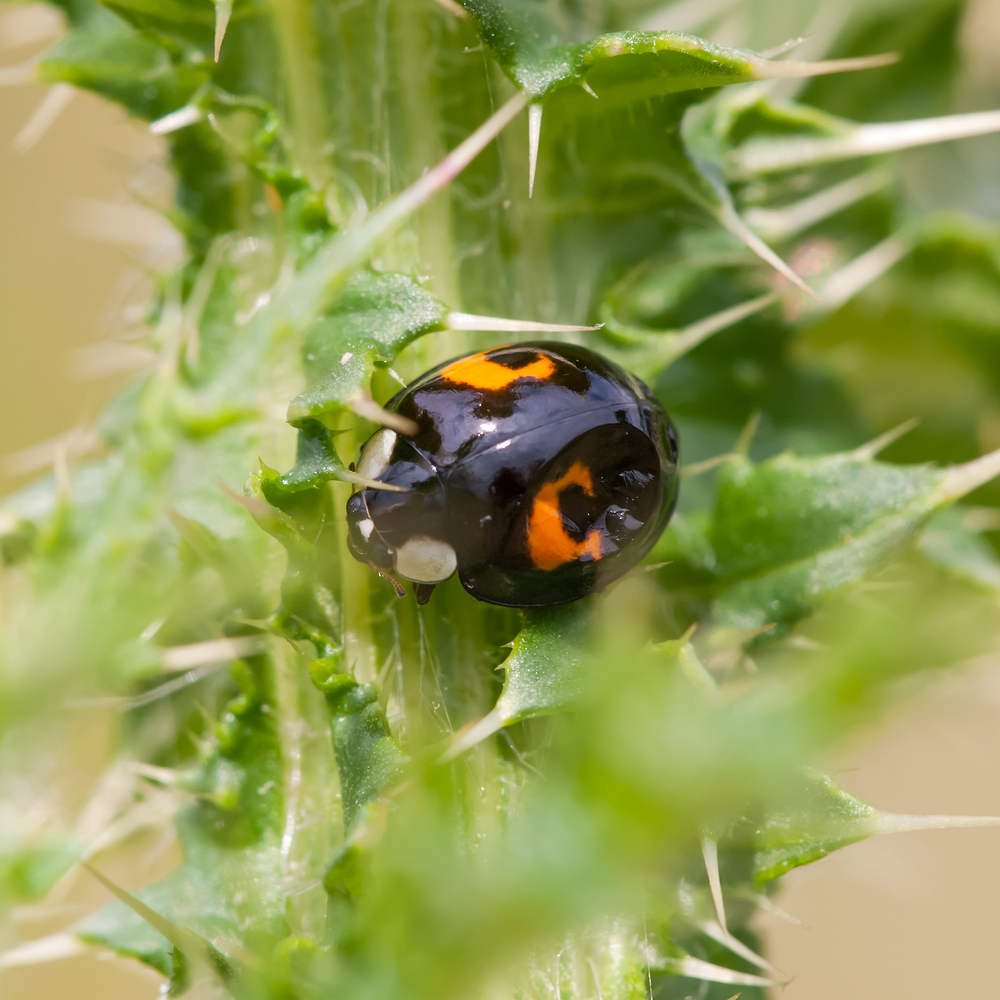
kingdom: Animalia
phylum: Arthropoda
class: Insecta
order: Coleoptera
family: Coccinellidae
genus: Harmonia
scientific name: Harmonia axyridis
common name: Harlequin ladybird
